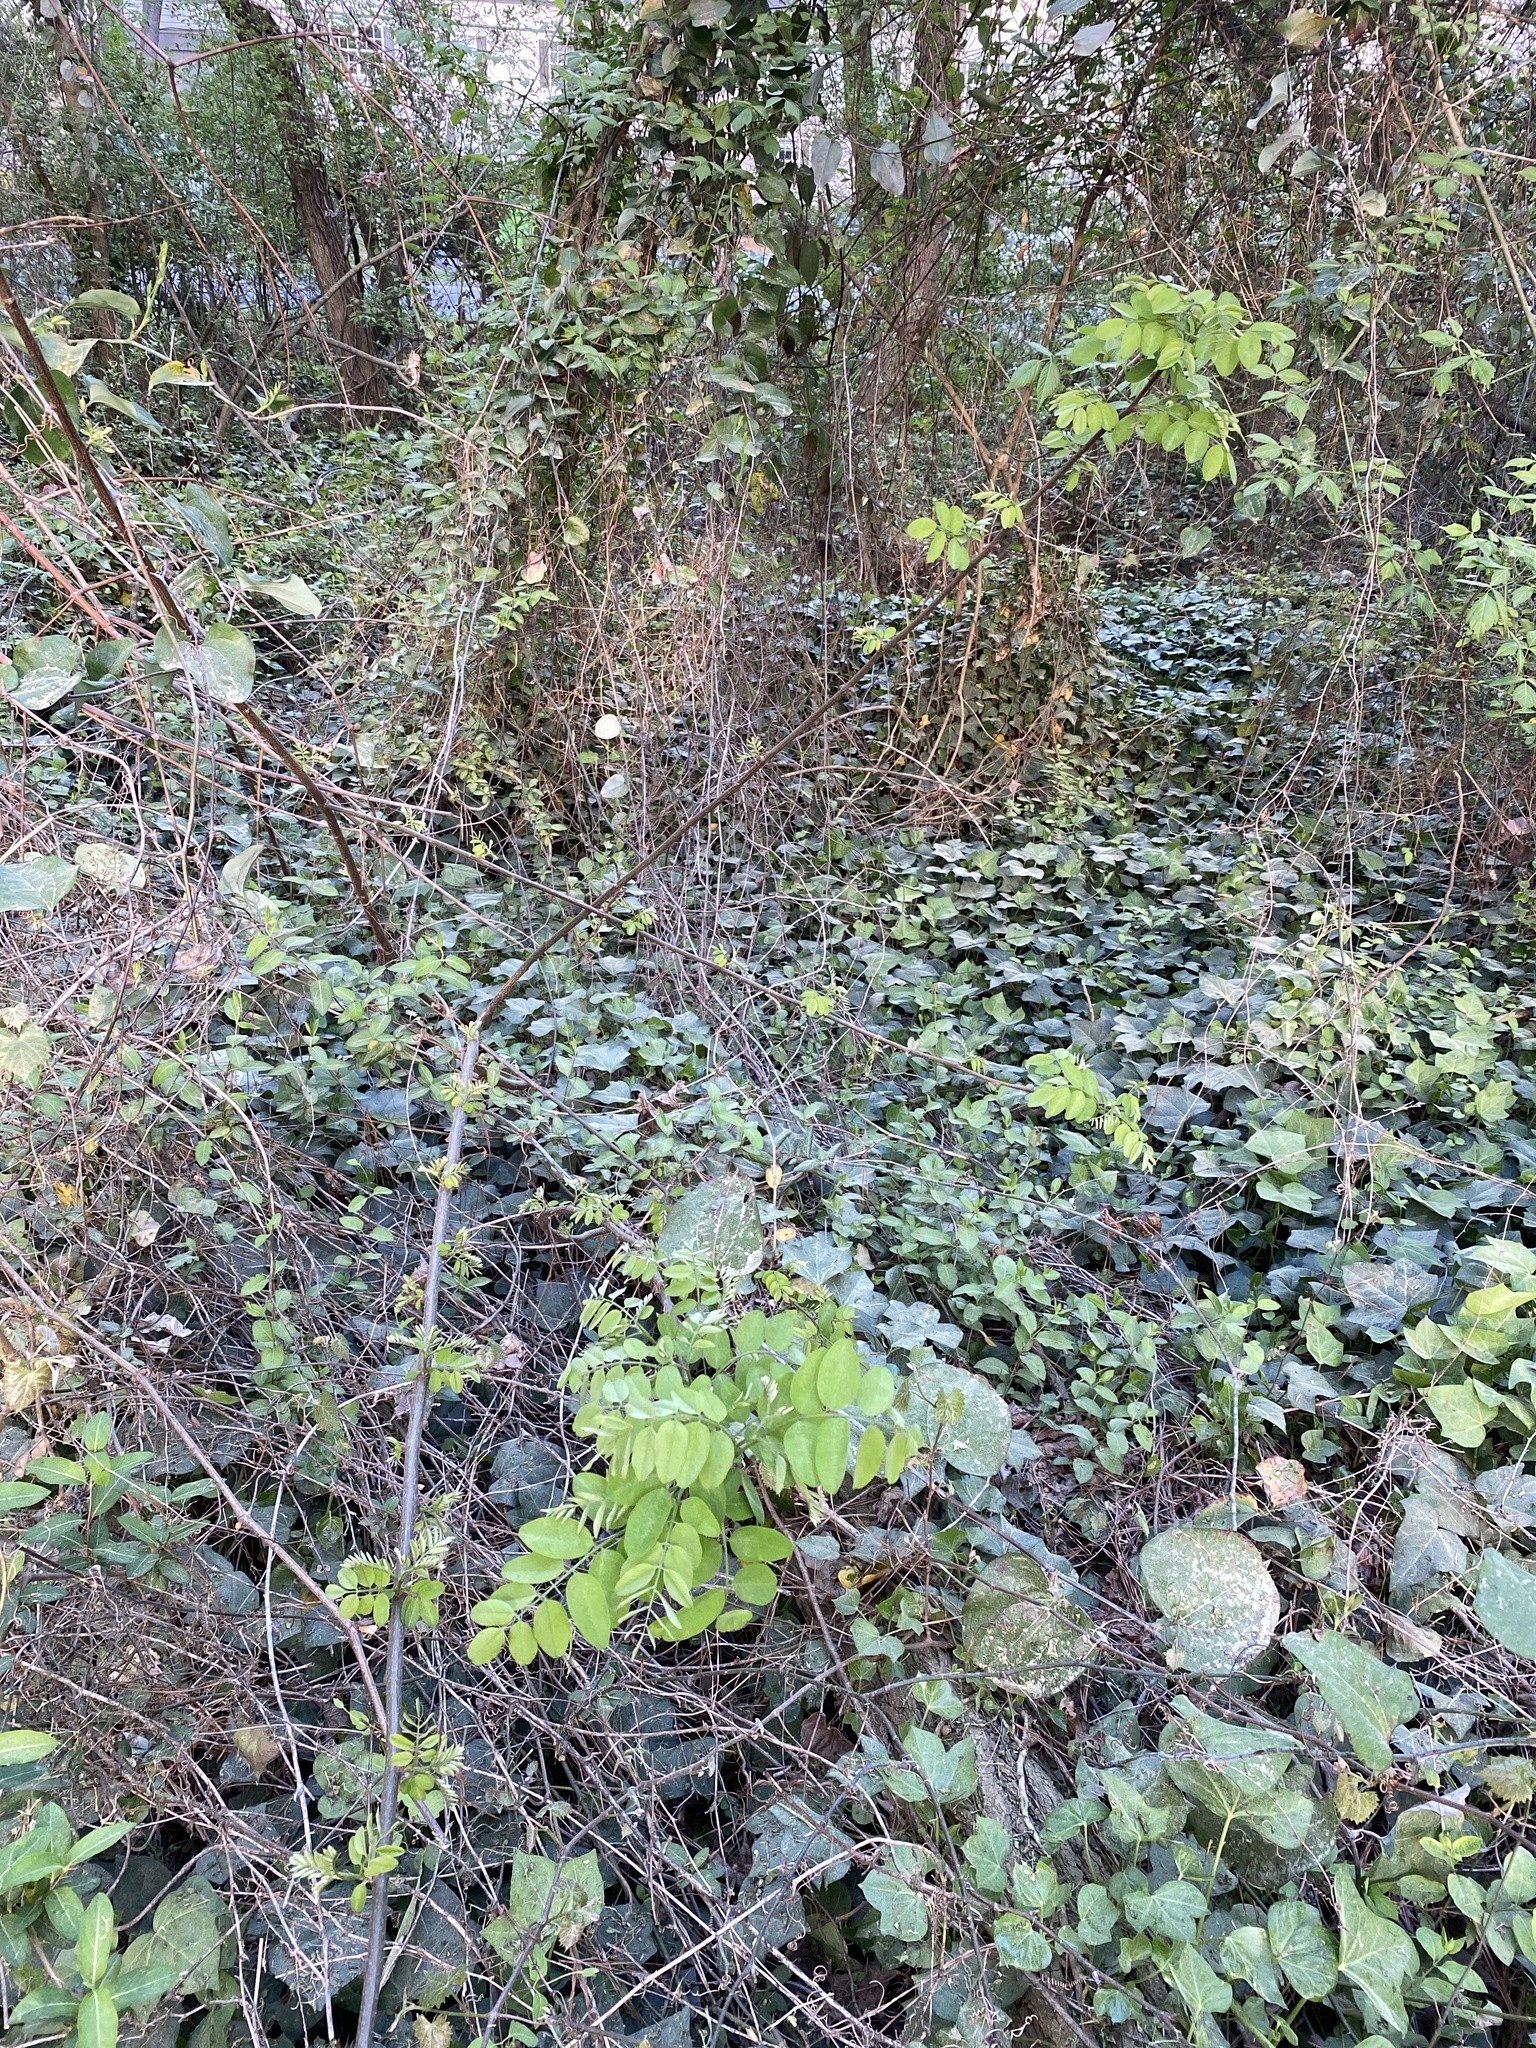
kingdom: Plantae
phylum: Tracheophyta
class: Magnoliopsida
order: Fabales
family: Fabaceae
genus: Robinia
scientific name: Robinia pseudoacacia
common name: Black locust
